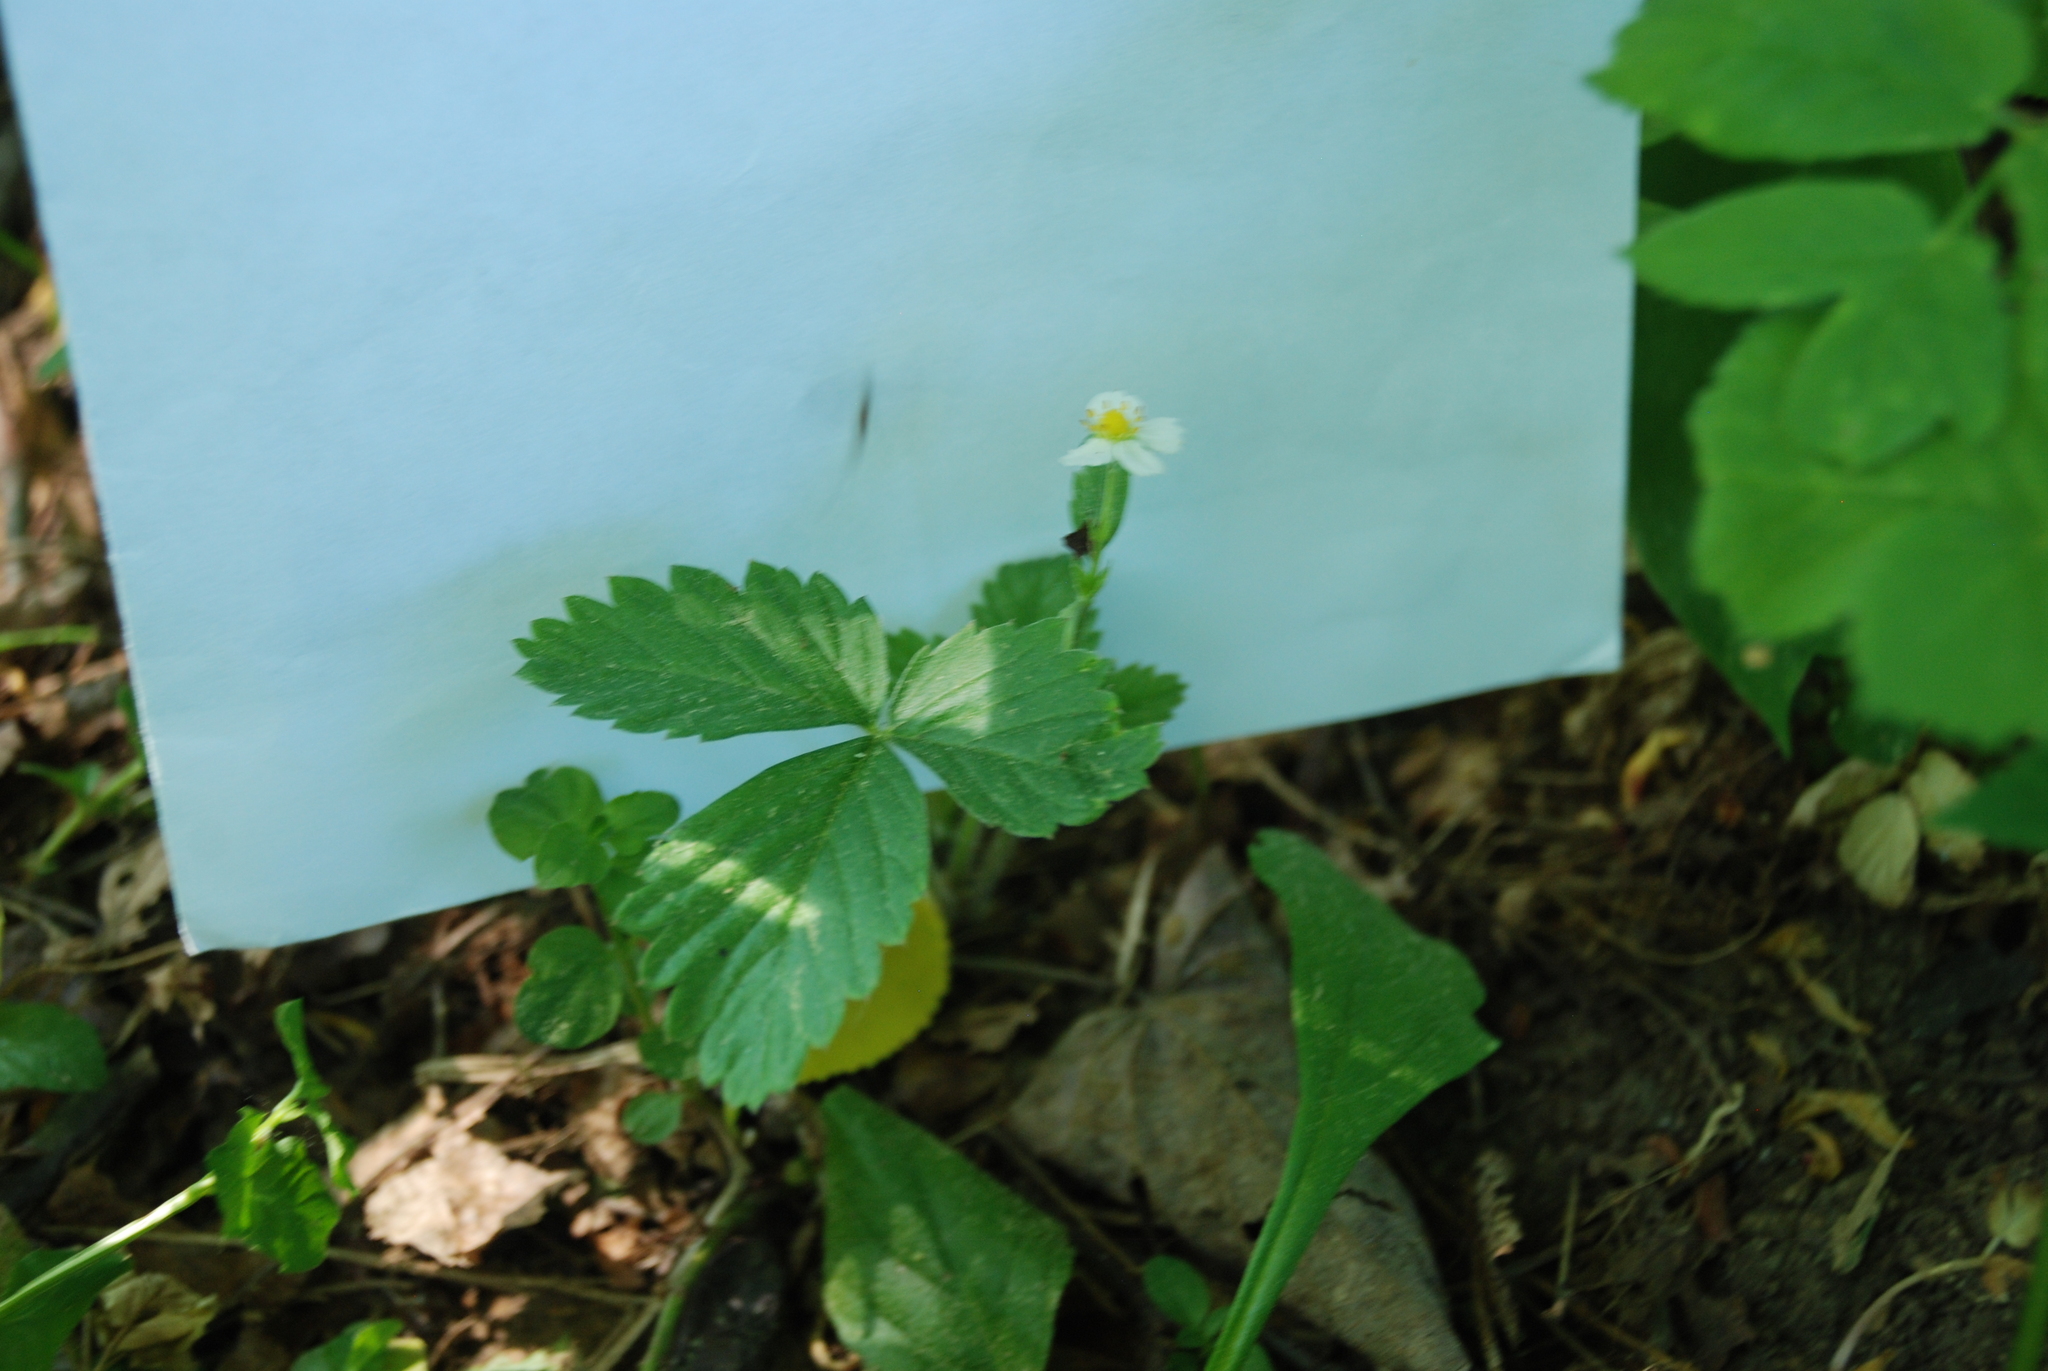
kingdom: Plantae
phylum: Tracheophyta
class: Magnoliopsida
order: Rosales
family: Rosaceae
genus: Fragaria
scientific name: Fragaria vesca
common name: Wild strawberry
